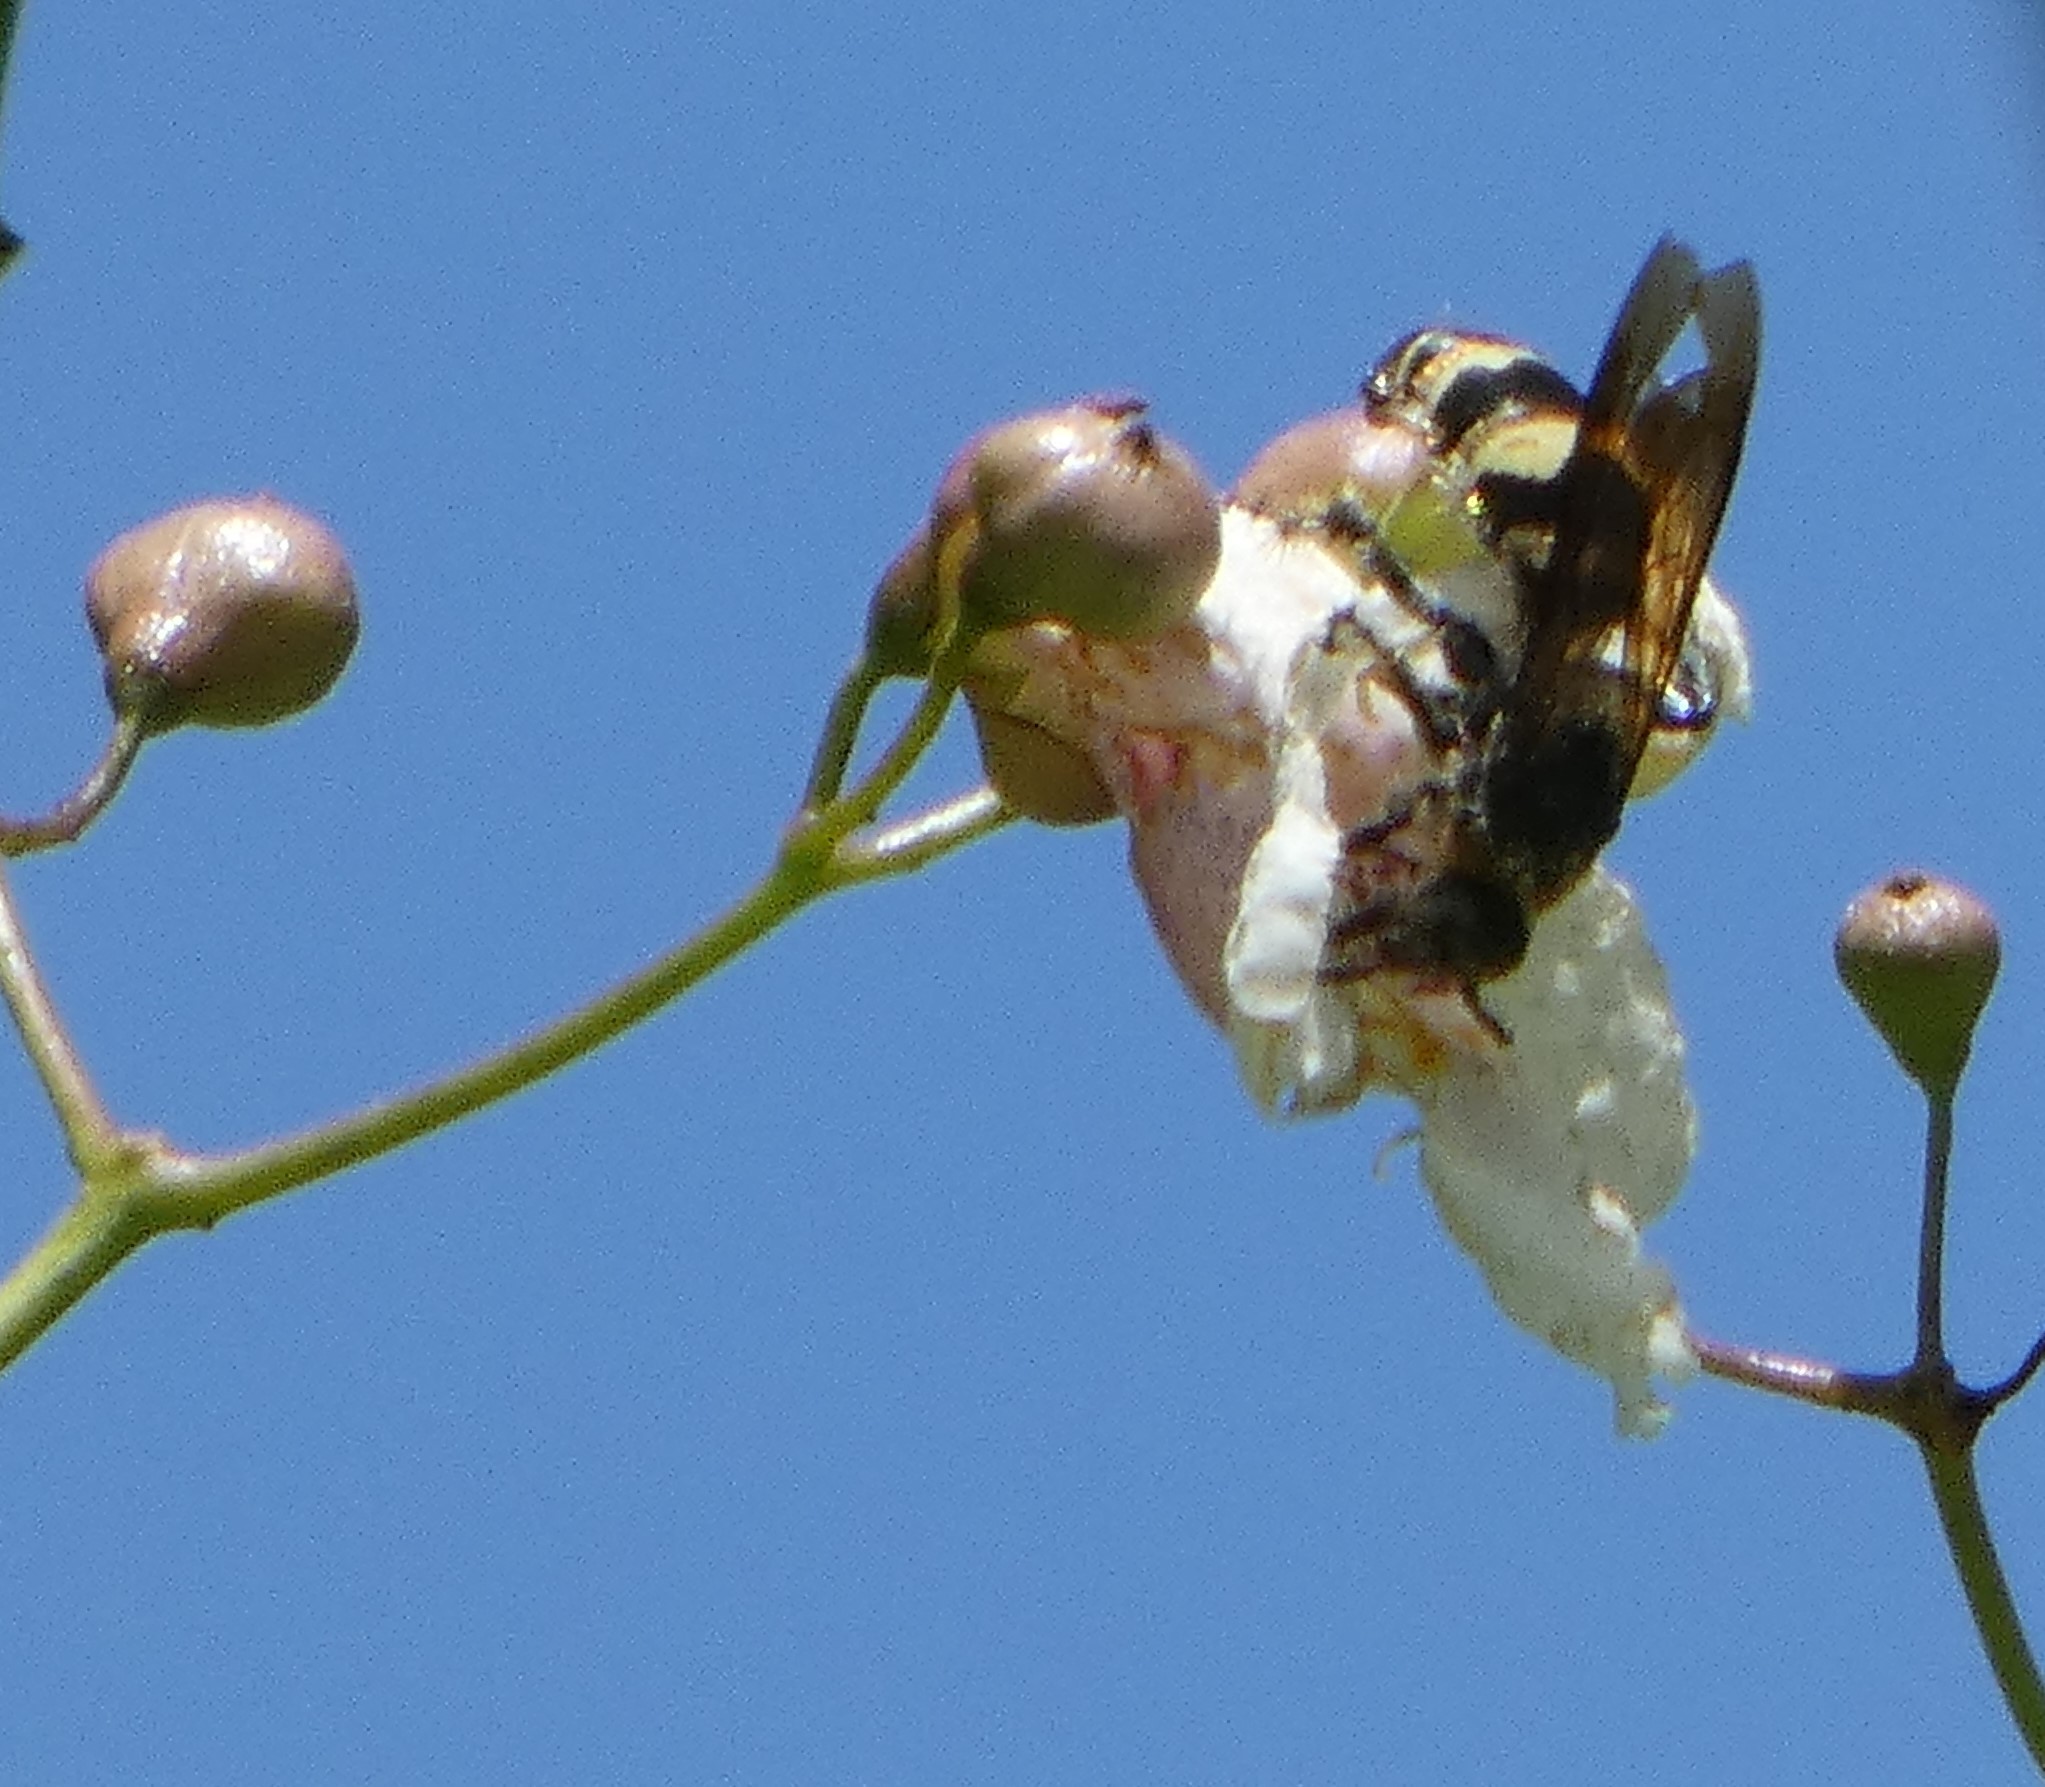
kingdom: Animalia
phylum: Arthropoda
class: Insecta
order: Hymenoptera
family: Scoliidae
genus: Dielis
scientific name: Dielis
